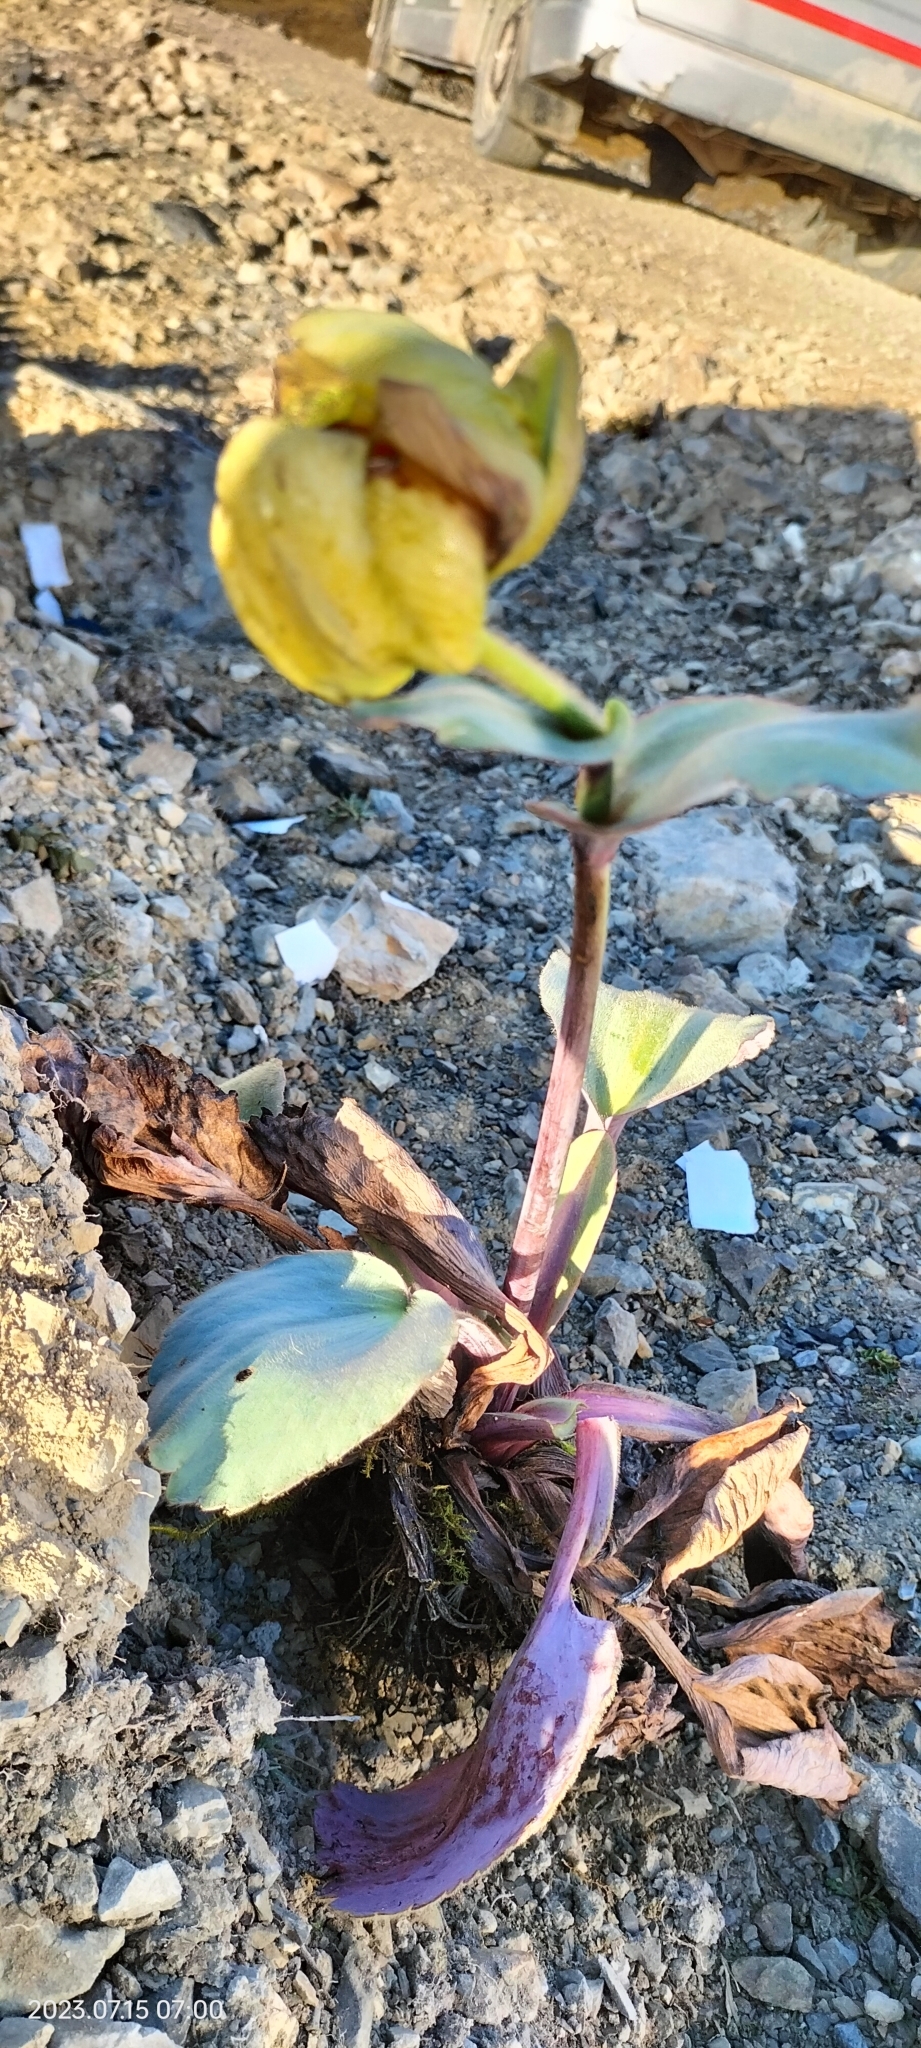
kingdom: Plantae
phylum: Tracheophyta
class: Magnoliopsida
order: Ranunculales
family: Ranunculaceae
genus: Krapfia
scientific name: Krapfia macropetala
